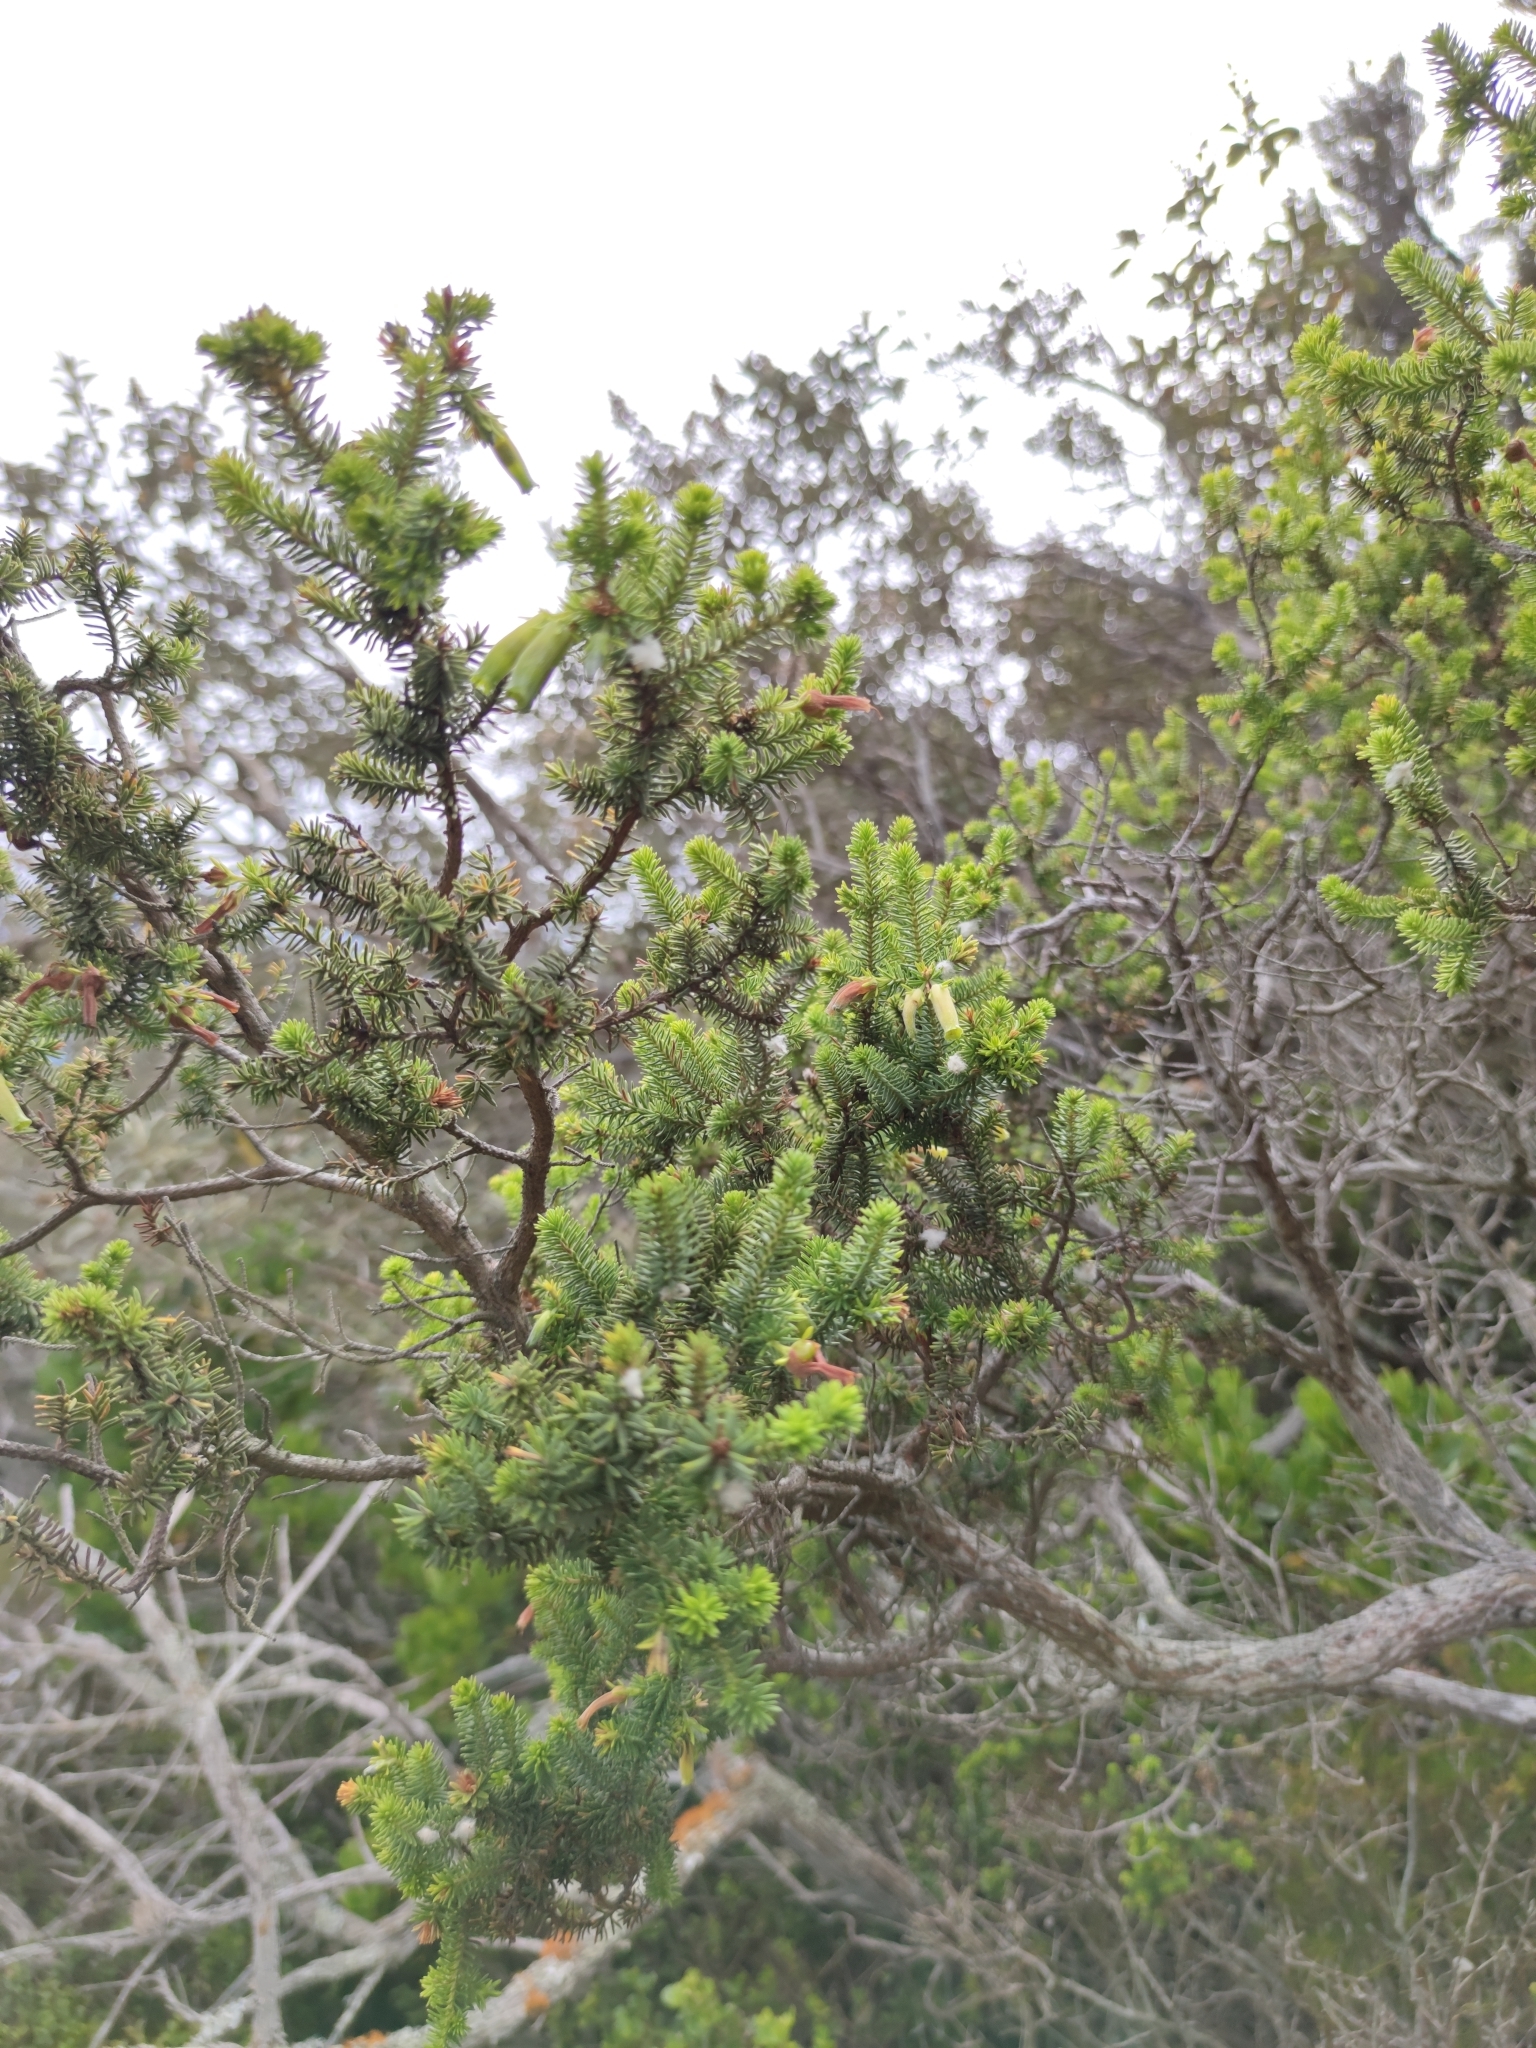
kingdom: Plantae
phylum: Tracheophyta
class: Magnoliopsida
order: Ericales
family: Ericaceae
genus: Erica
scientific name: Erica brachialis
